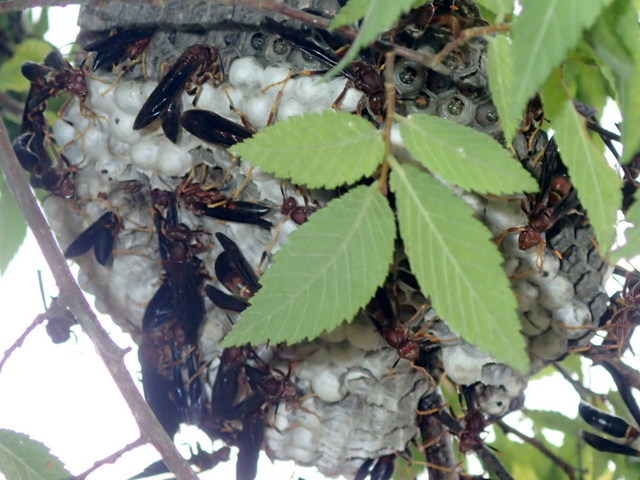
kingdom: Animalia
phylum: Arthropoda
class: Insecta
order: Hymenoptera
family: Eumenidae
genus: Polistes
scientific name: Polistes annularis
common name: Ringed paper wasp
